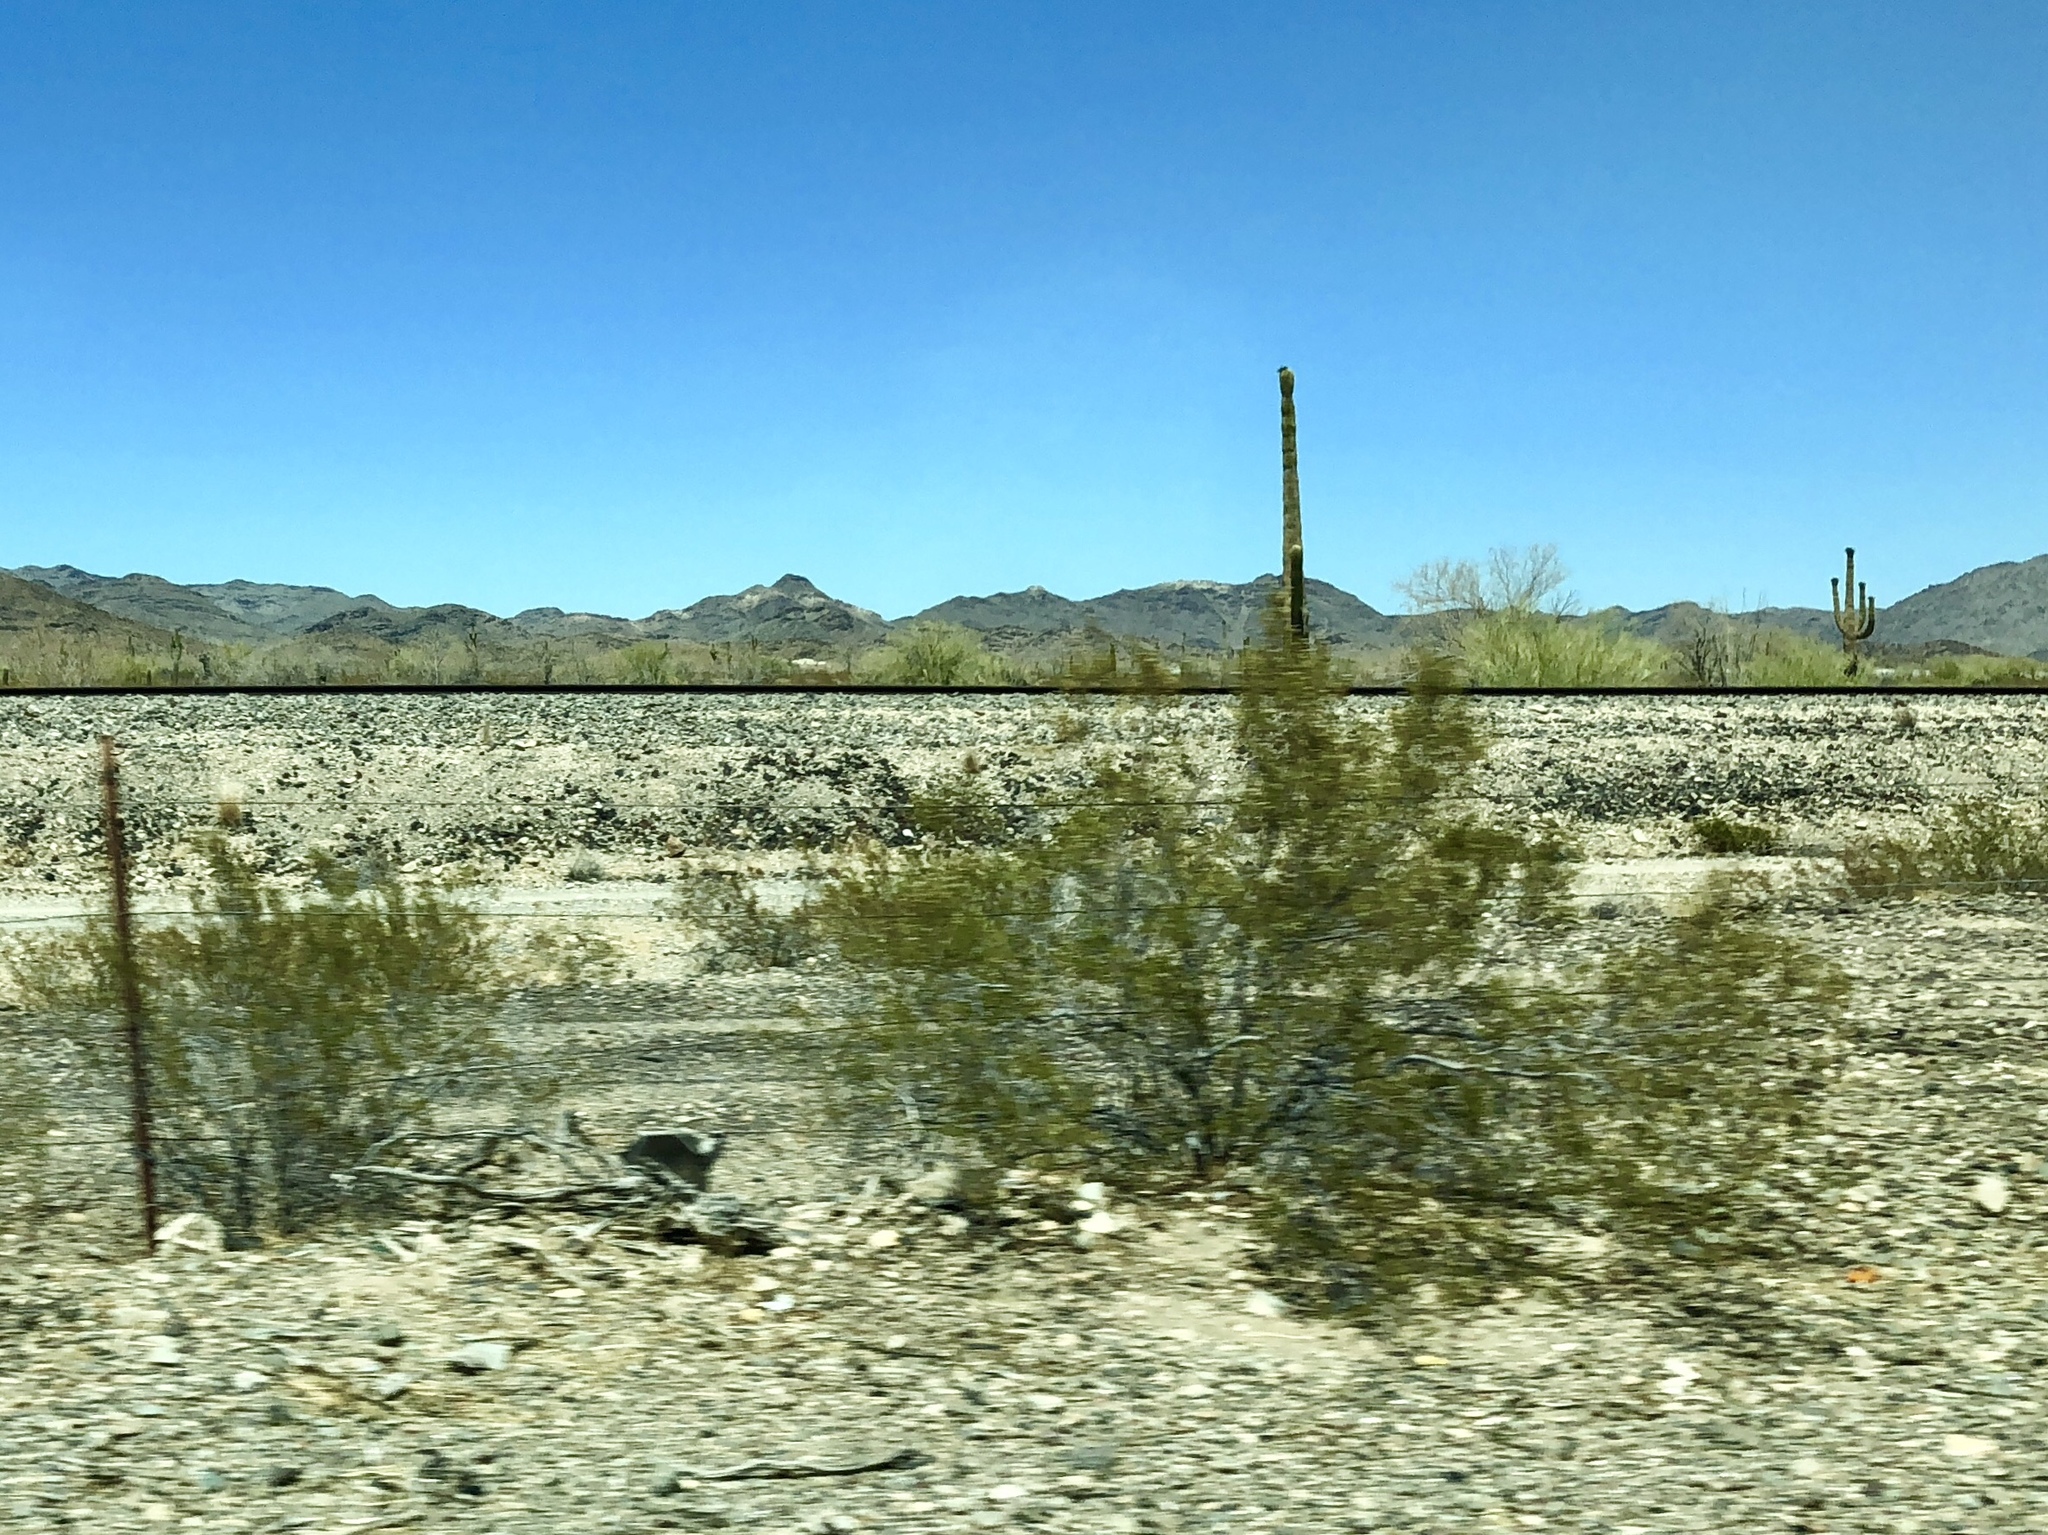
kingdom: Plantae
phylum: Tracheophyta
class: Magnoliopsida
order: Zygophyllales
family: Zygophyllaceae
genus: Larrea
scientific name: Larrea tridentata
